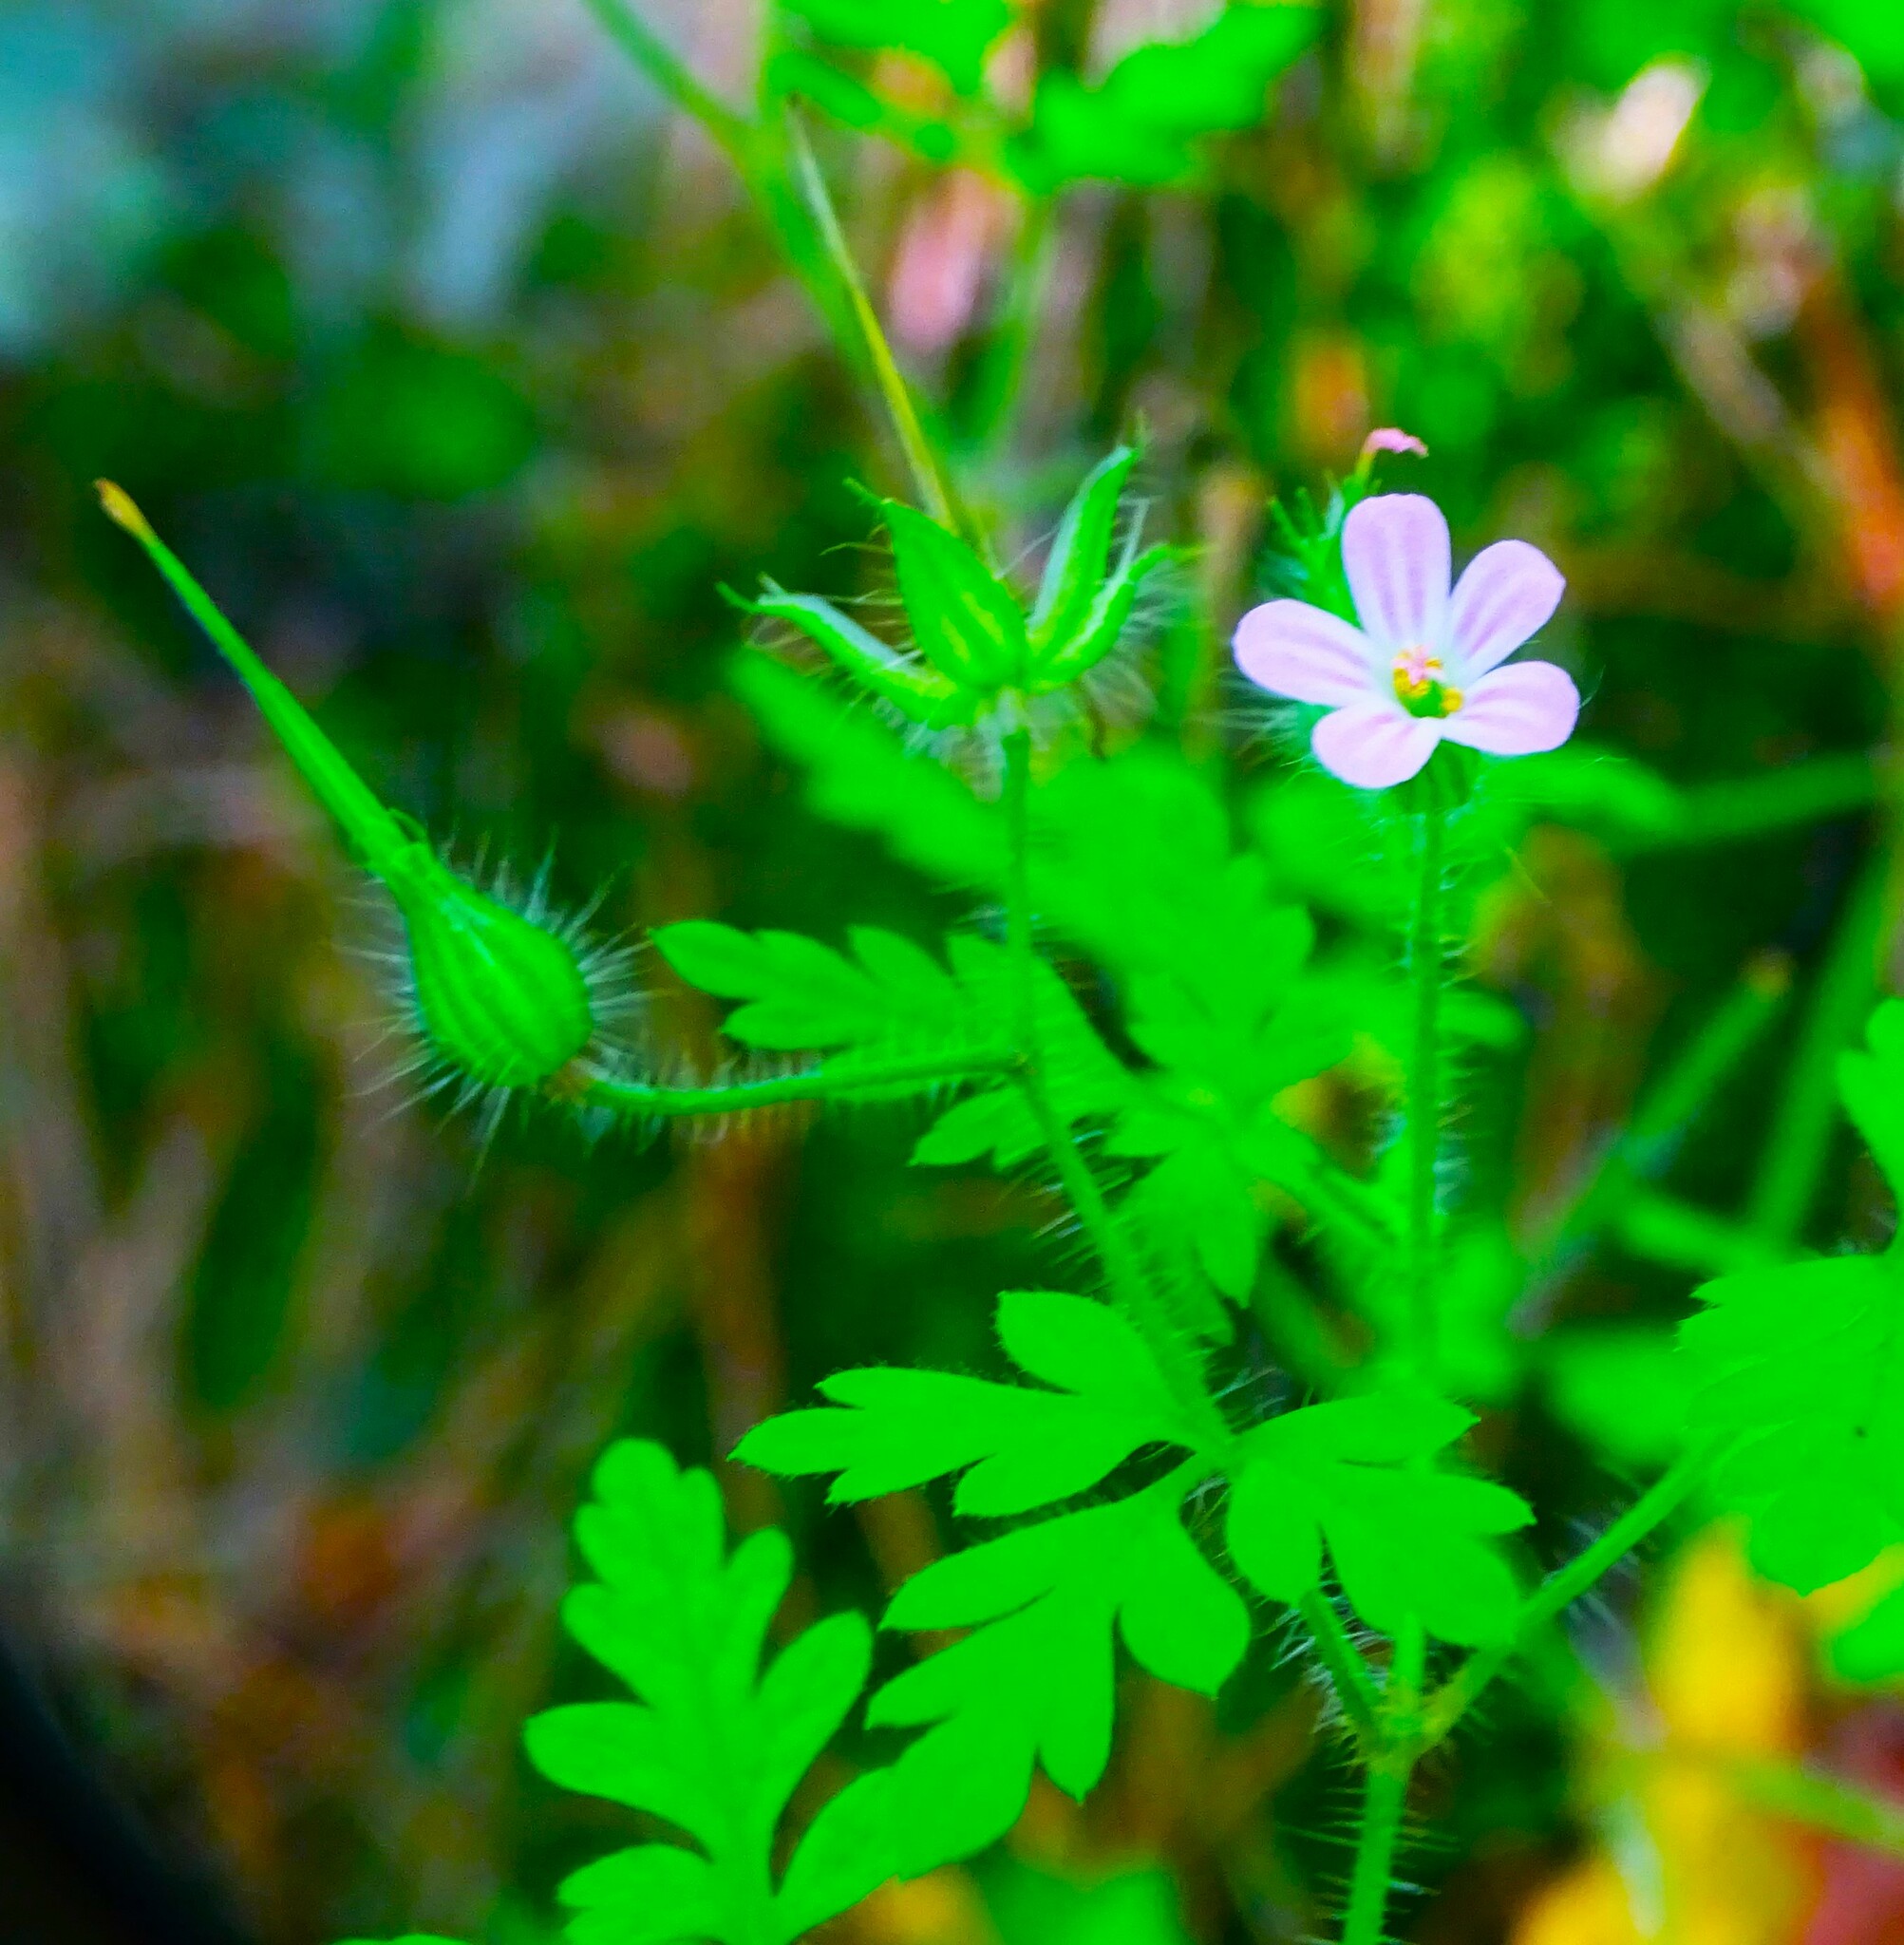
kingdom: Plantae
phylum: Tracheophyta
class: Magnoliopsida
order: Geraniales
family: Geraniaceae
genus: Geranium
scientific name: Geranium robertianum
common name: Herb-robert
